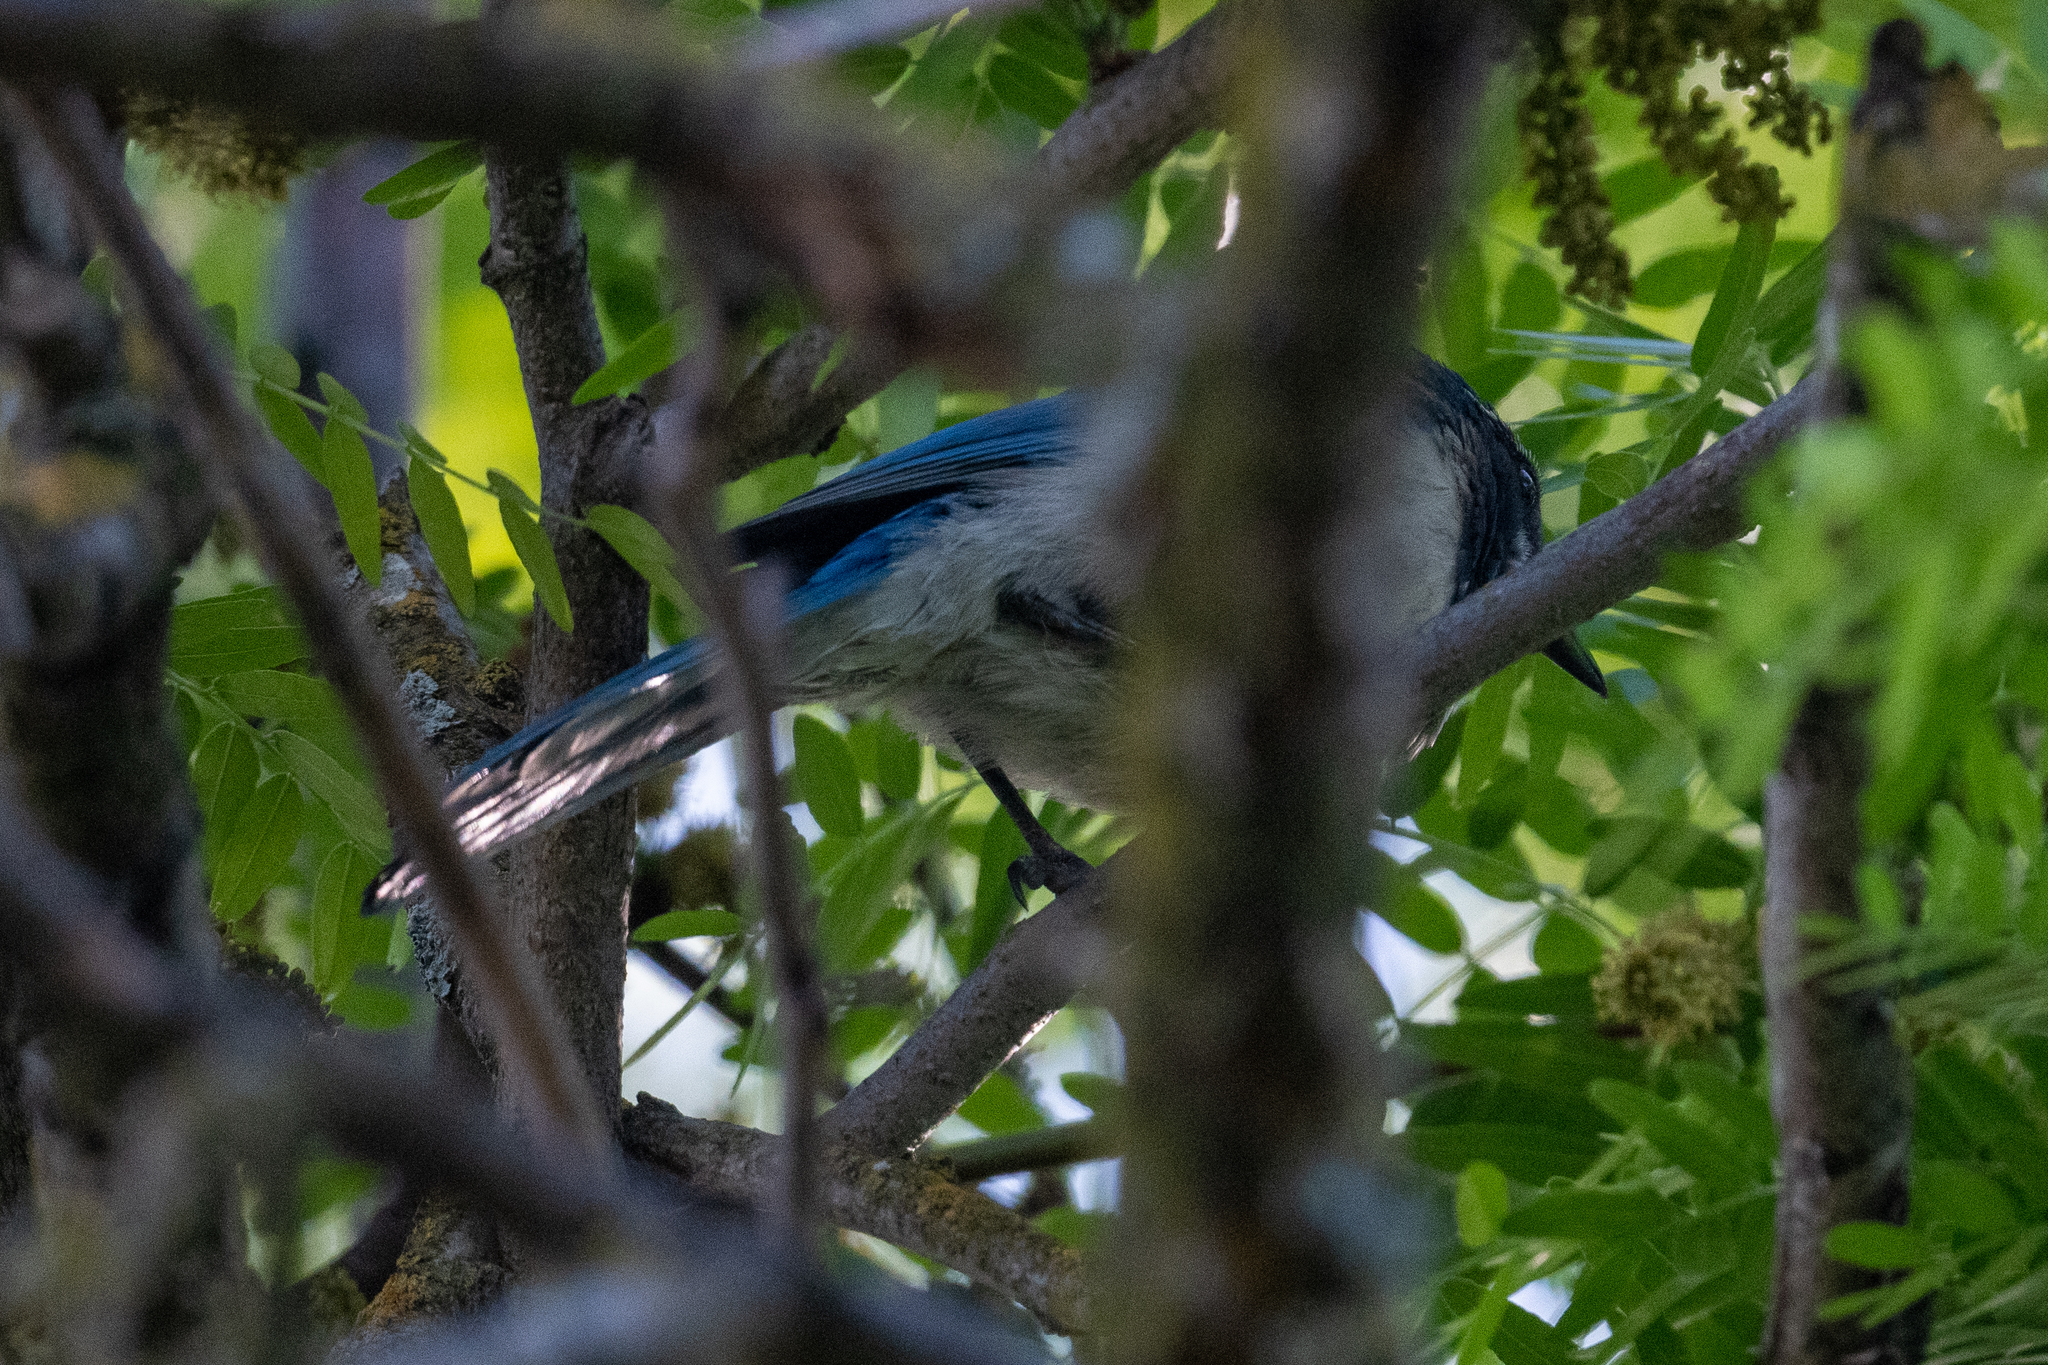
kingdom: Animalia
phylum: Chordata
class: Aves
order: Passeriformes
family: Corvidae
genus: Aphelocoma
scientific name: Aphelocoma californica
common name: California scrub-jay
